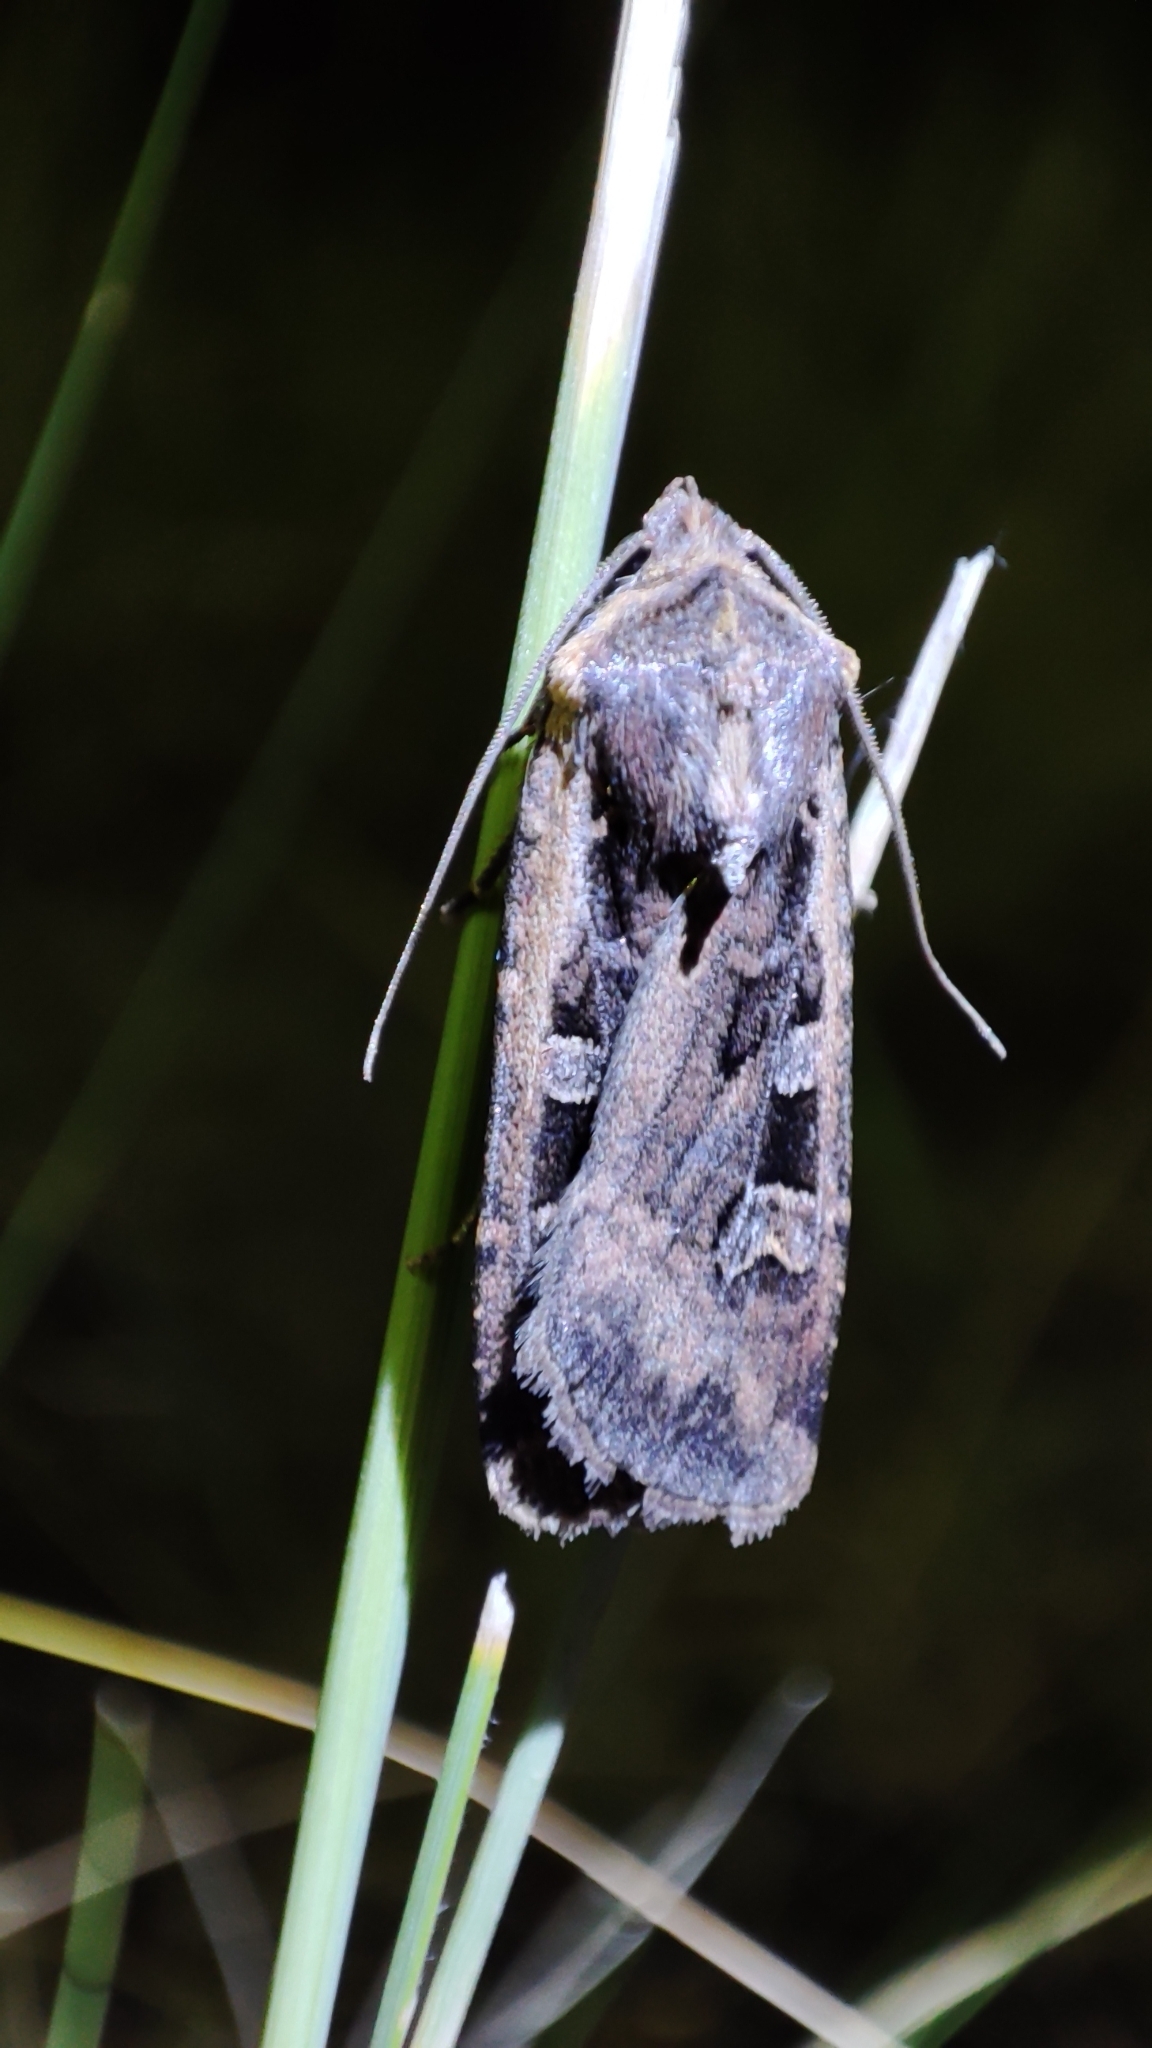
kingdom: Animalia
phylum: Arthropoda
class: Insecta
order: Lepidoptera
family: Noctuidae
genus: Euxoa
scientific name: Euxoa ochrogaster
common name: Red-backed cutworm moth
